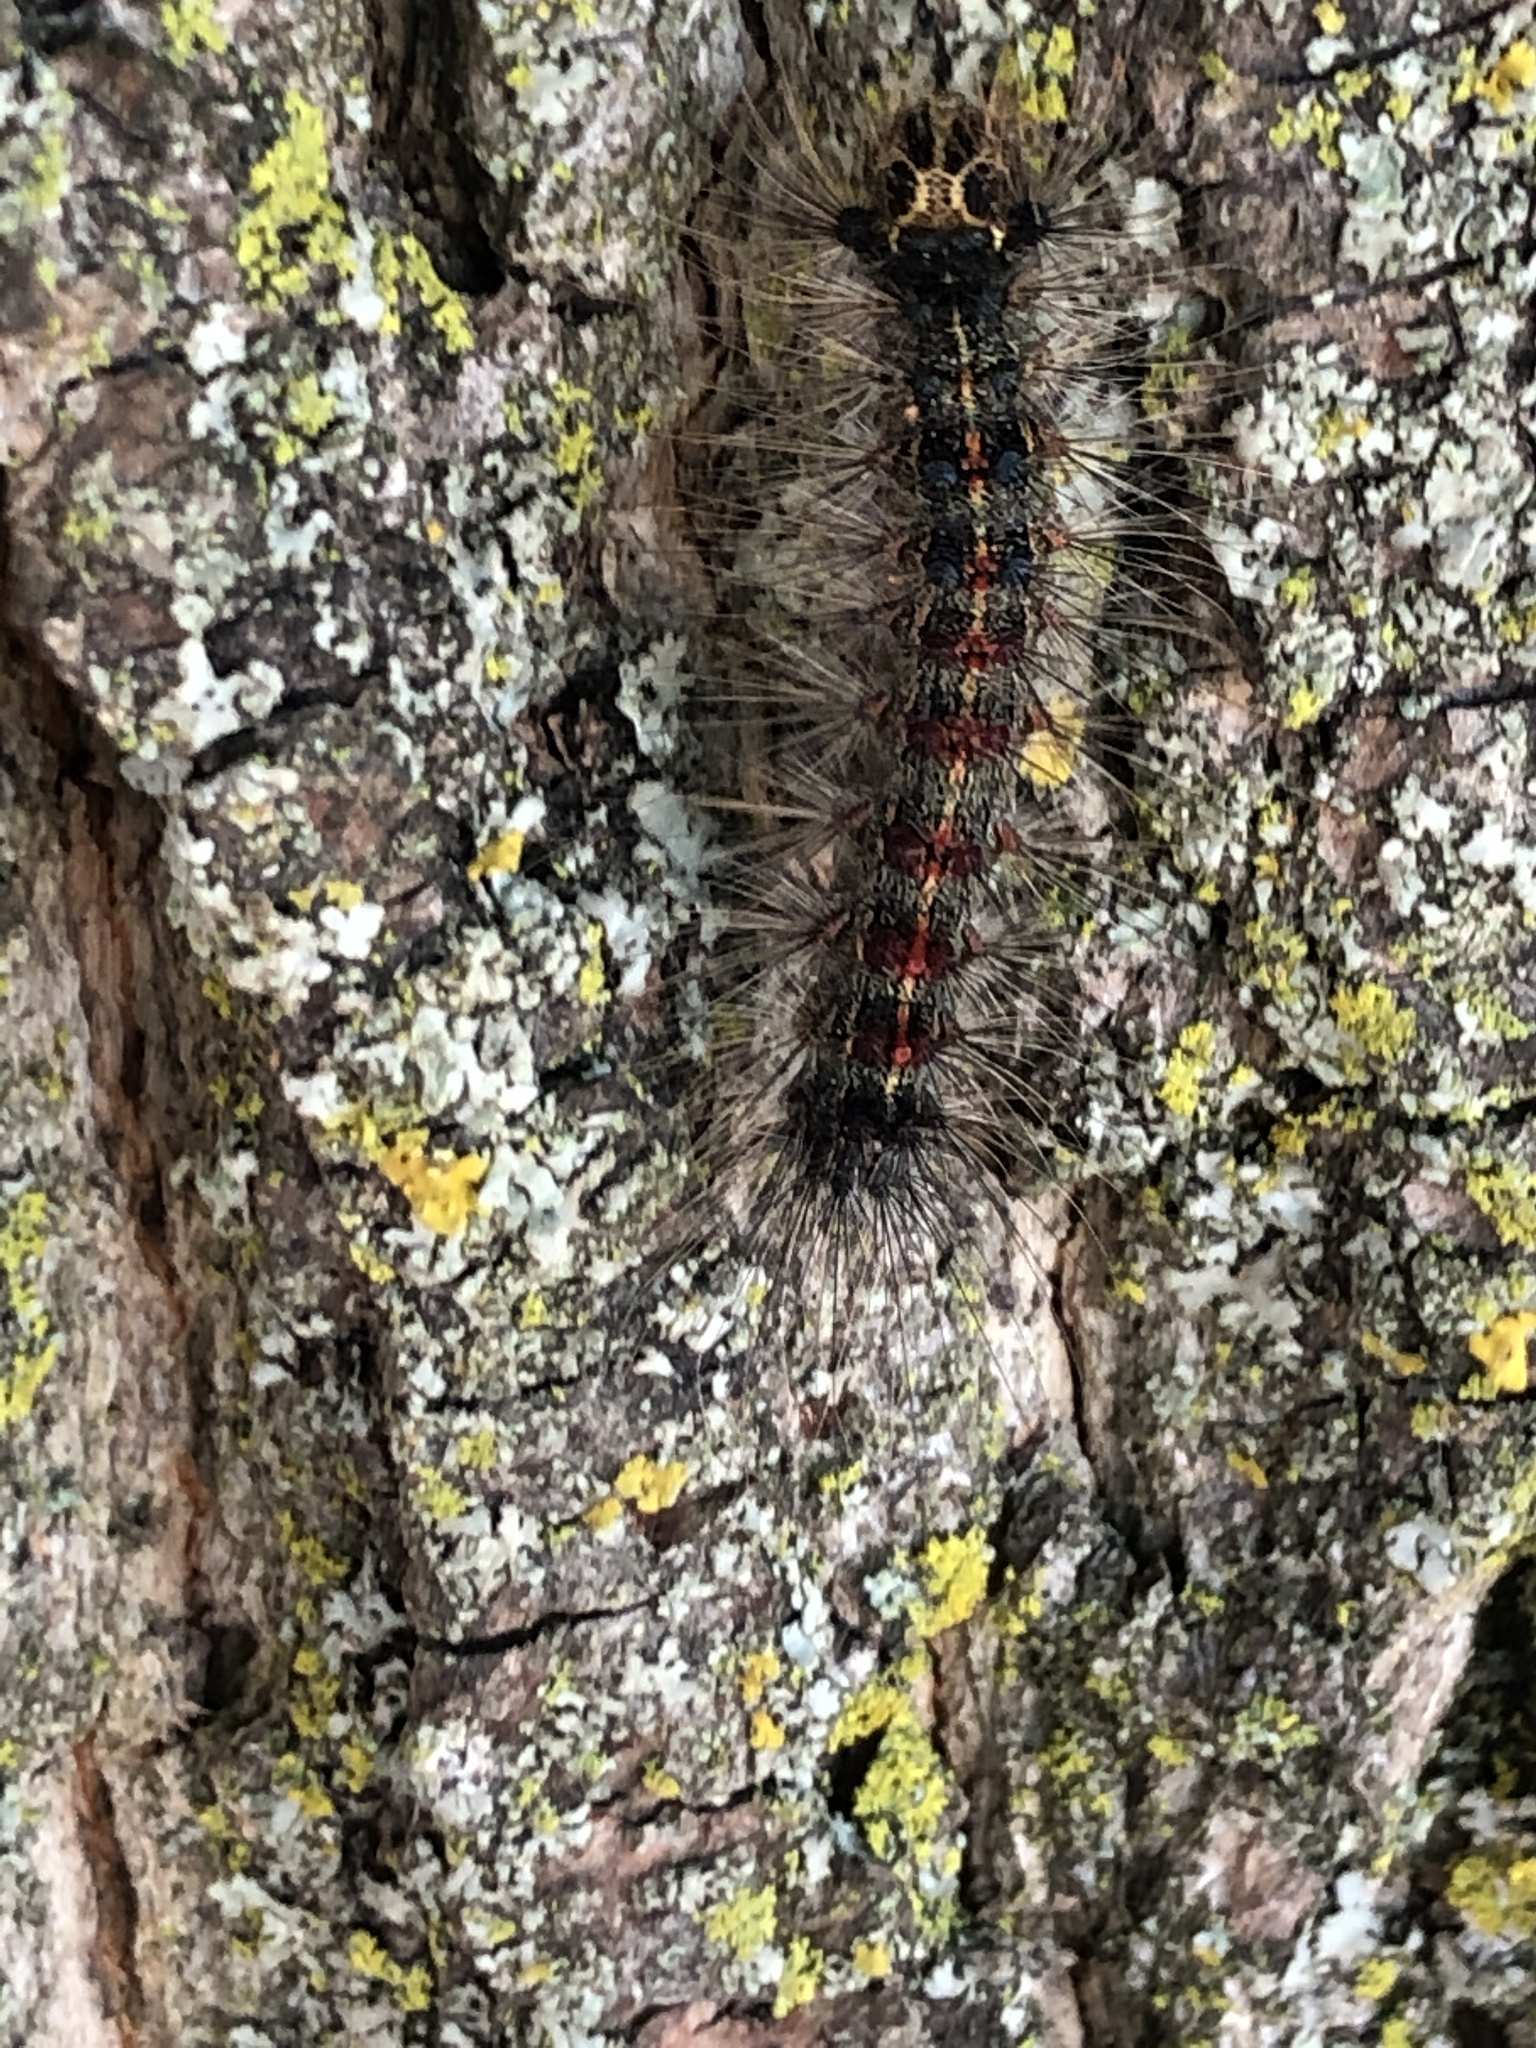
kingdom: Animalia
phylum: Arthropoda
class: Insecta
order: Lepidoptera
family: Erebidae
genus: Lymantria
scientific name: Lymantria dispar
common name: Gypsy moth
